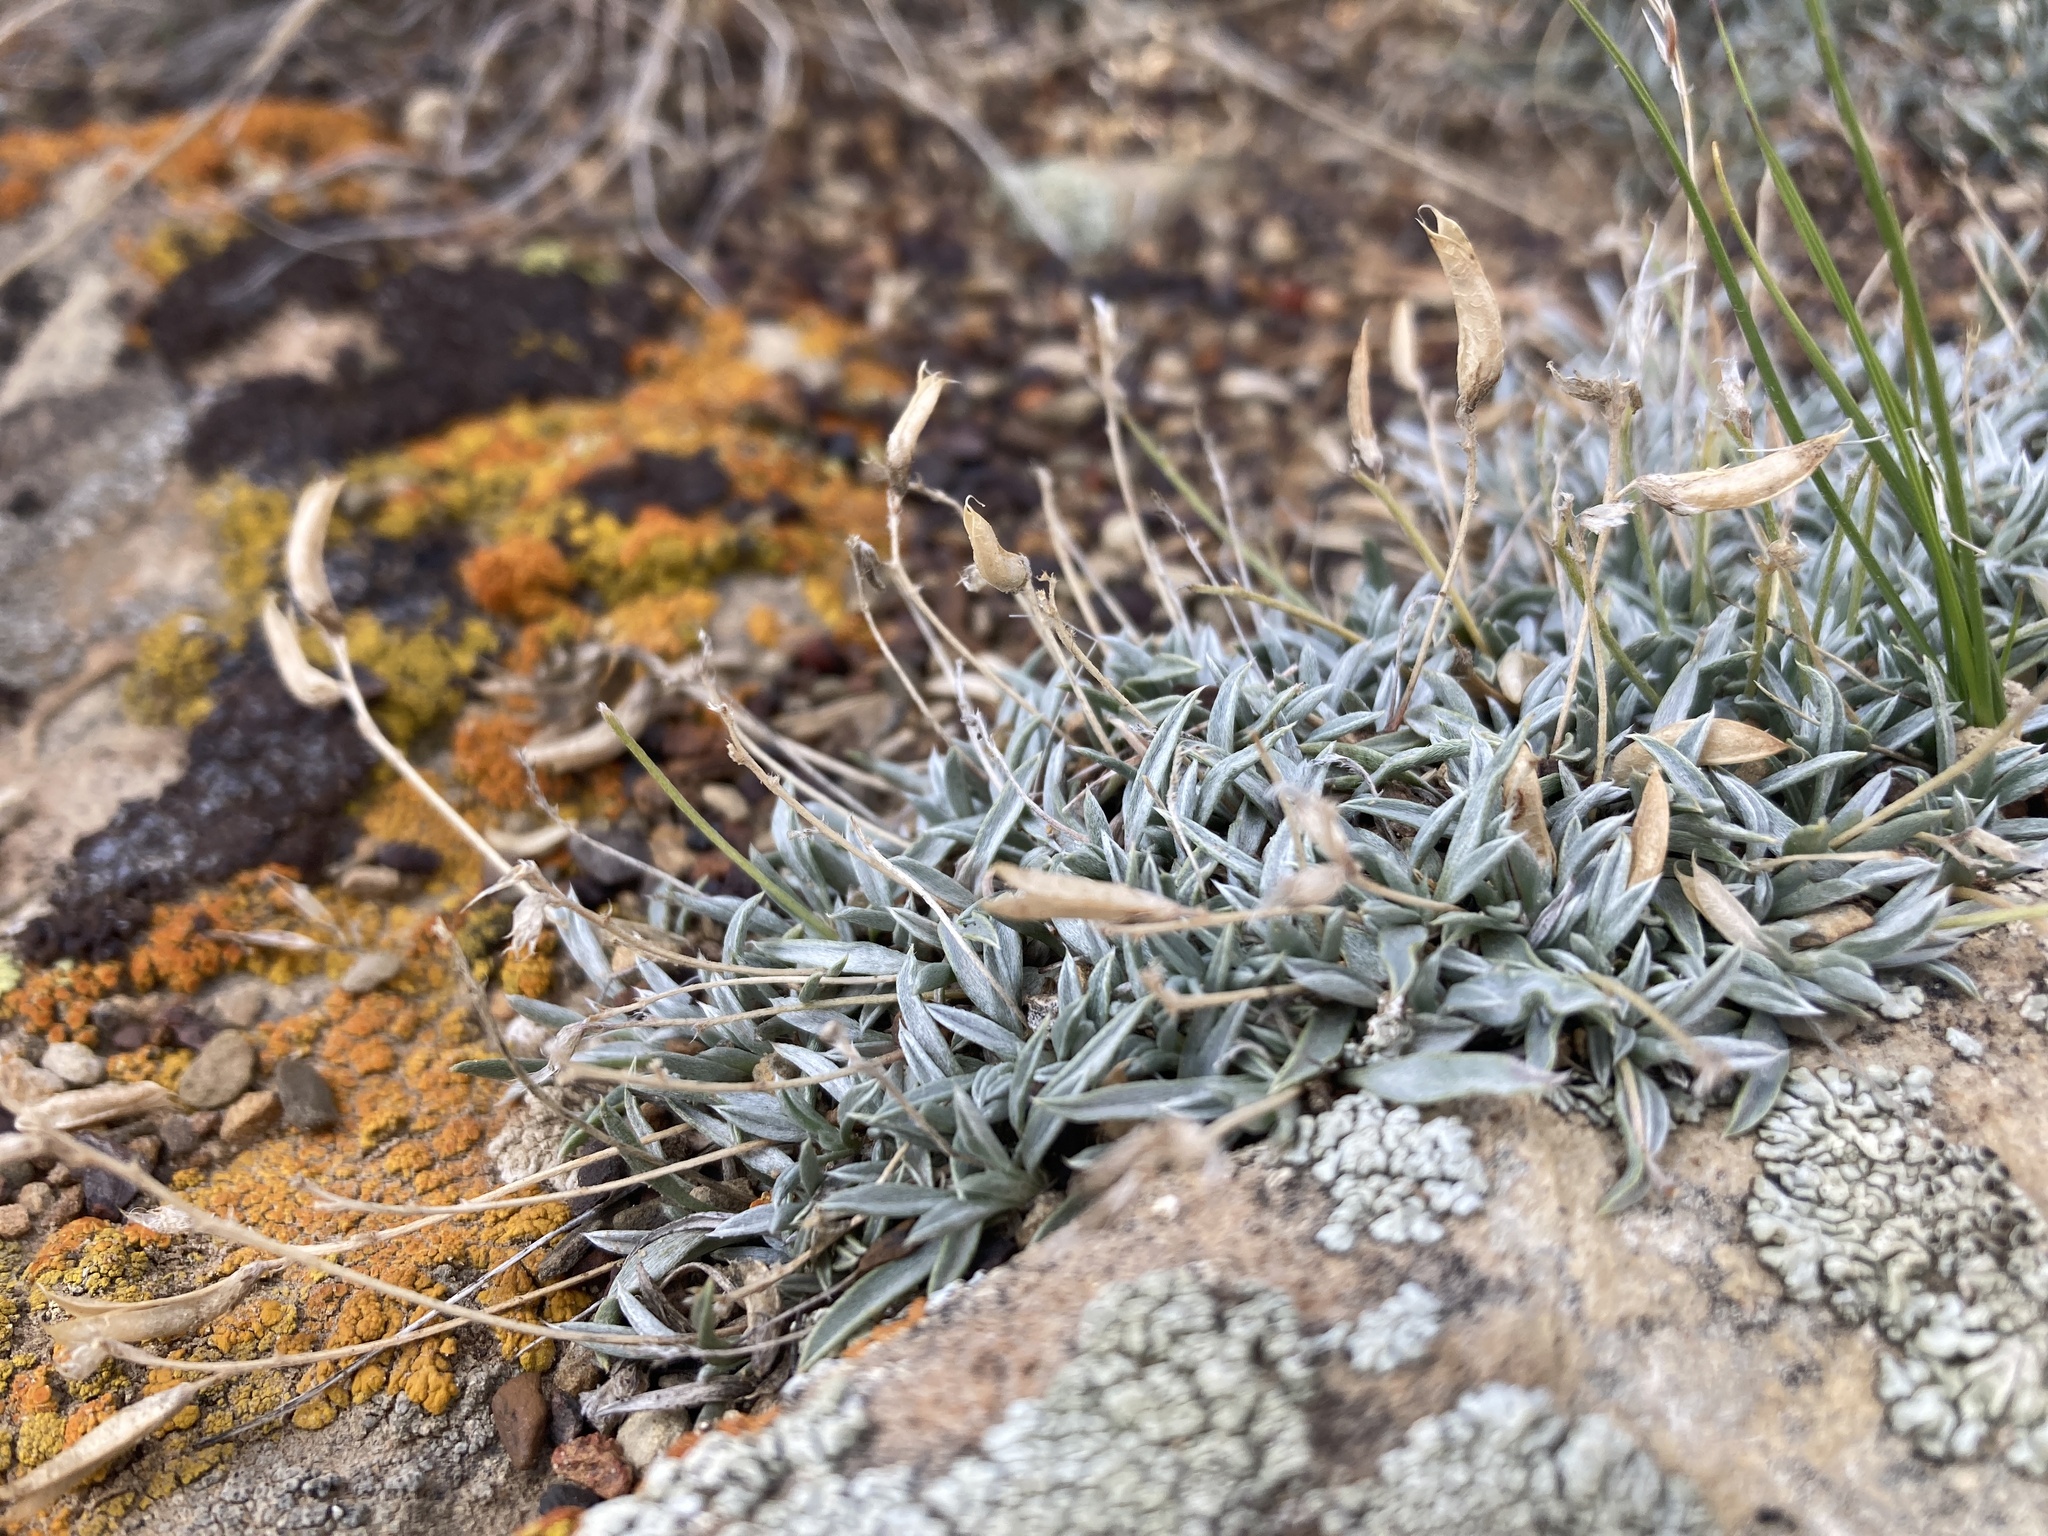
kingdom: Plantae
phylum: Tracheophyta
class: Magnoliopsida
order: Fabales
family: Fabaceae
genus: Astragalus
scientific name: Astragalus spatulatus
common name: Draba milk-vetch
